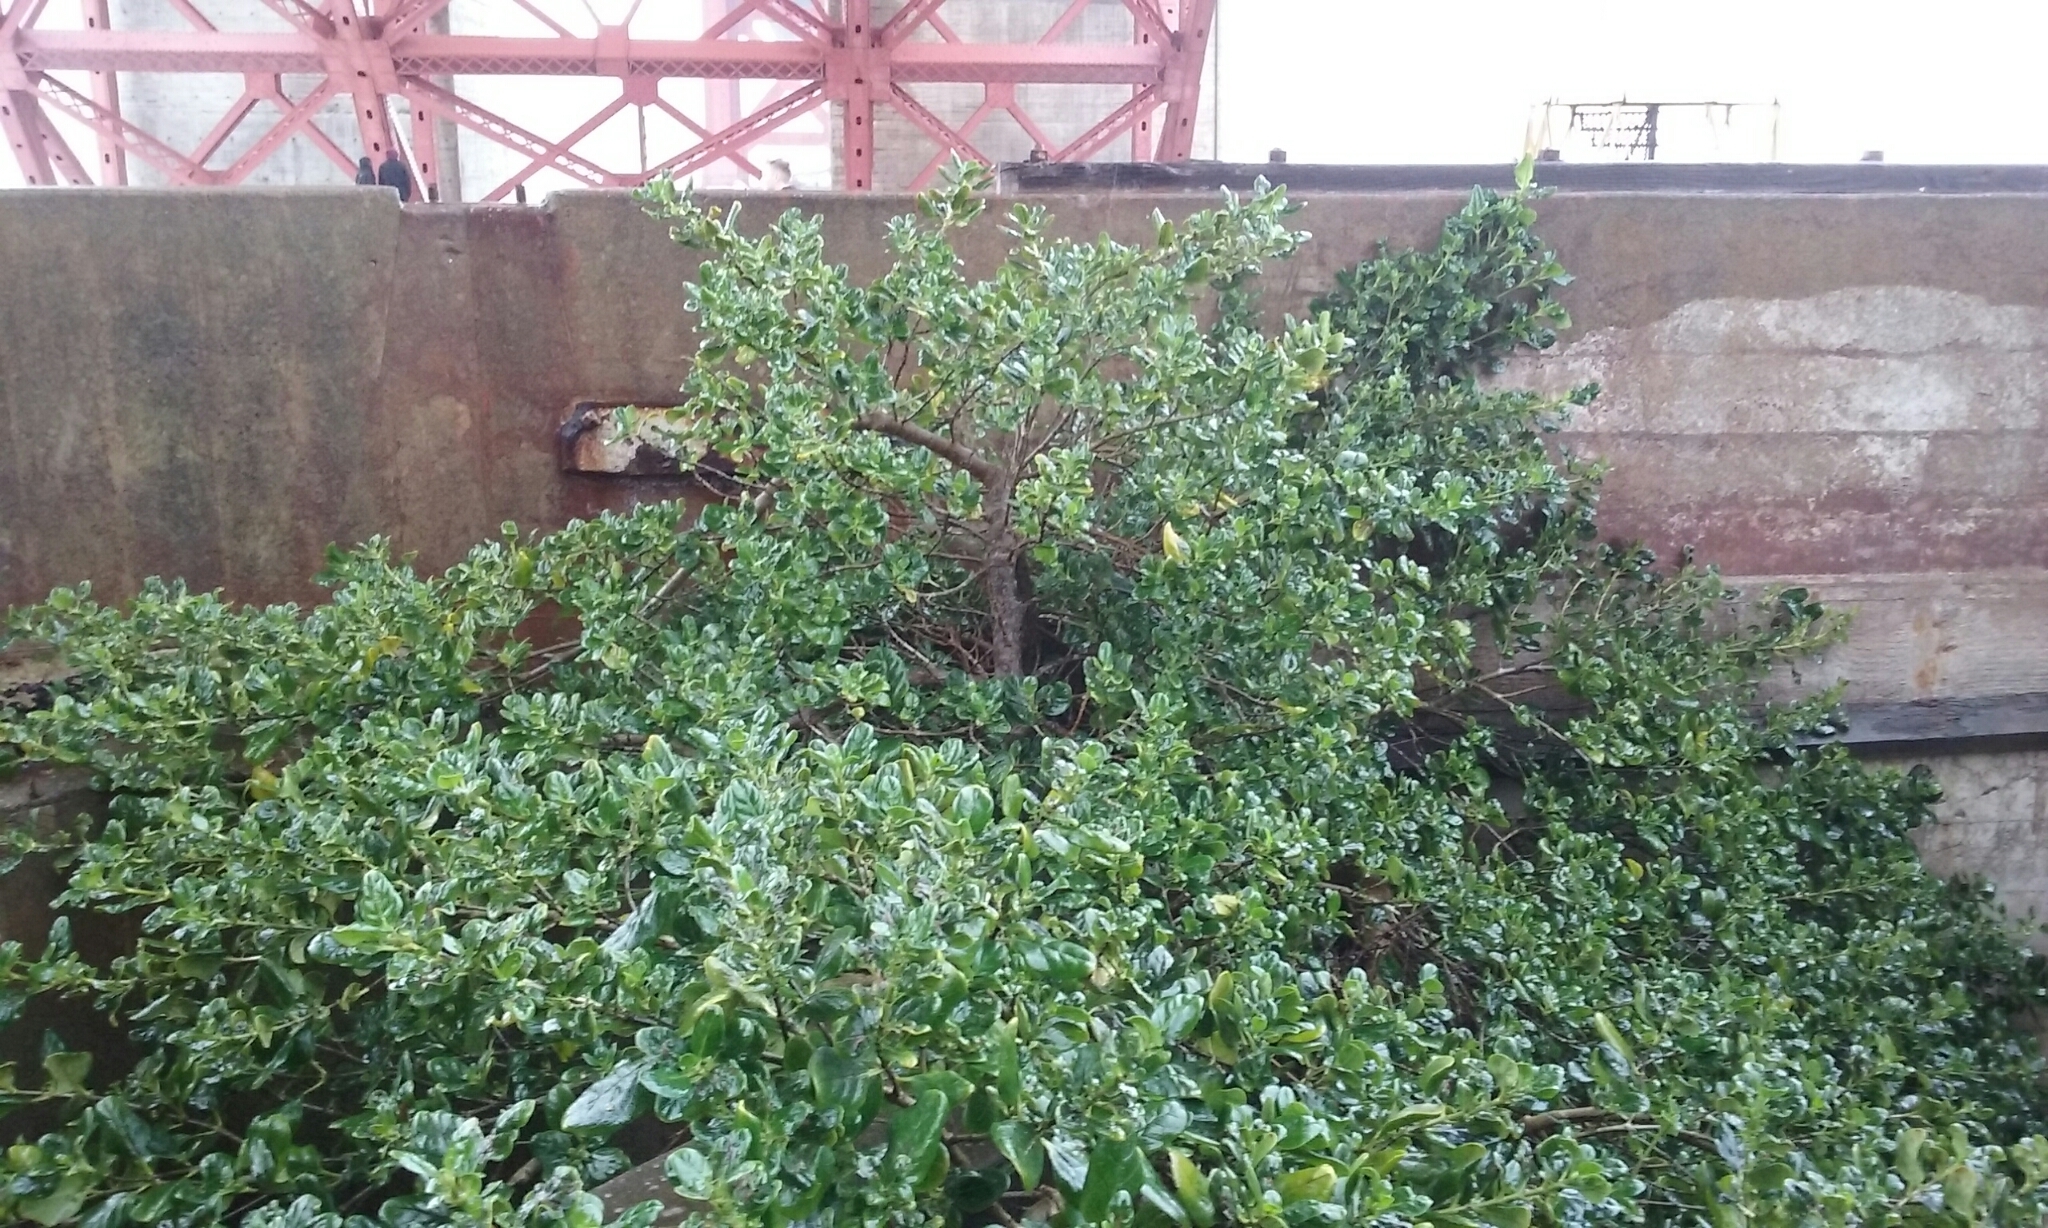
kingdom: Plantae
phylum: Tracheophyta
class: Magnoliopsida
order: Gentianales
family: Rubiaceae
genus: Coprosma
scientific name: Coprosma repens
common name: Tree bedstraw
